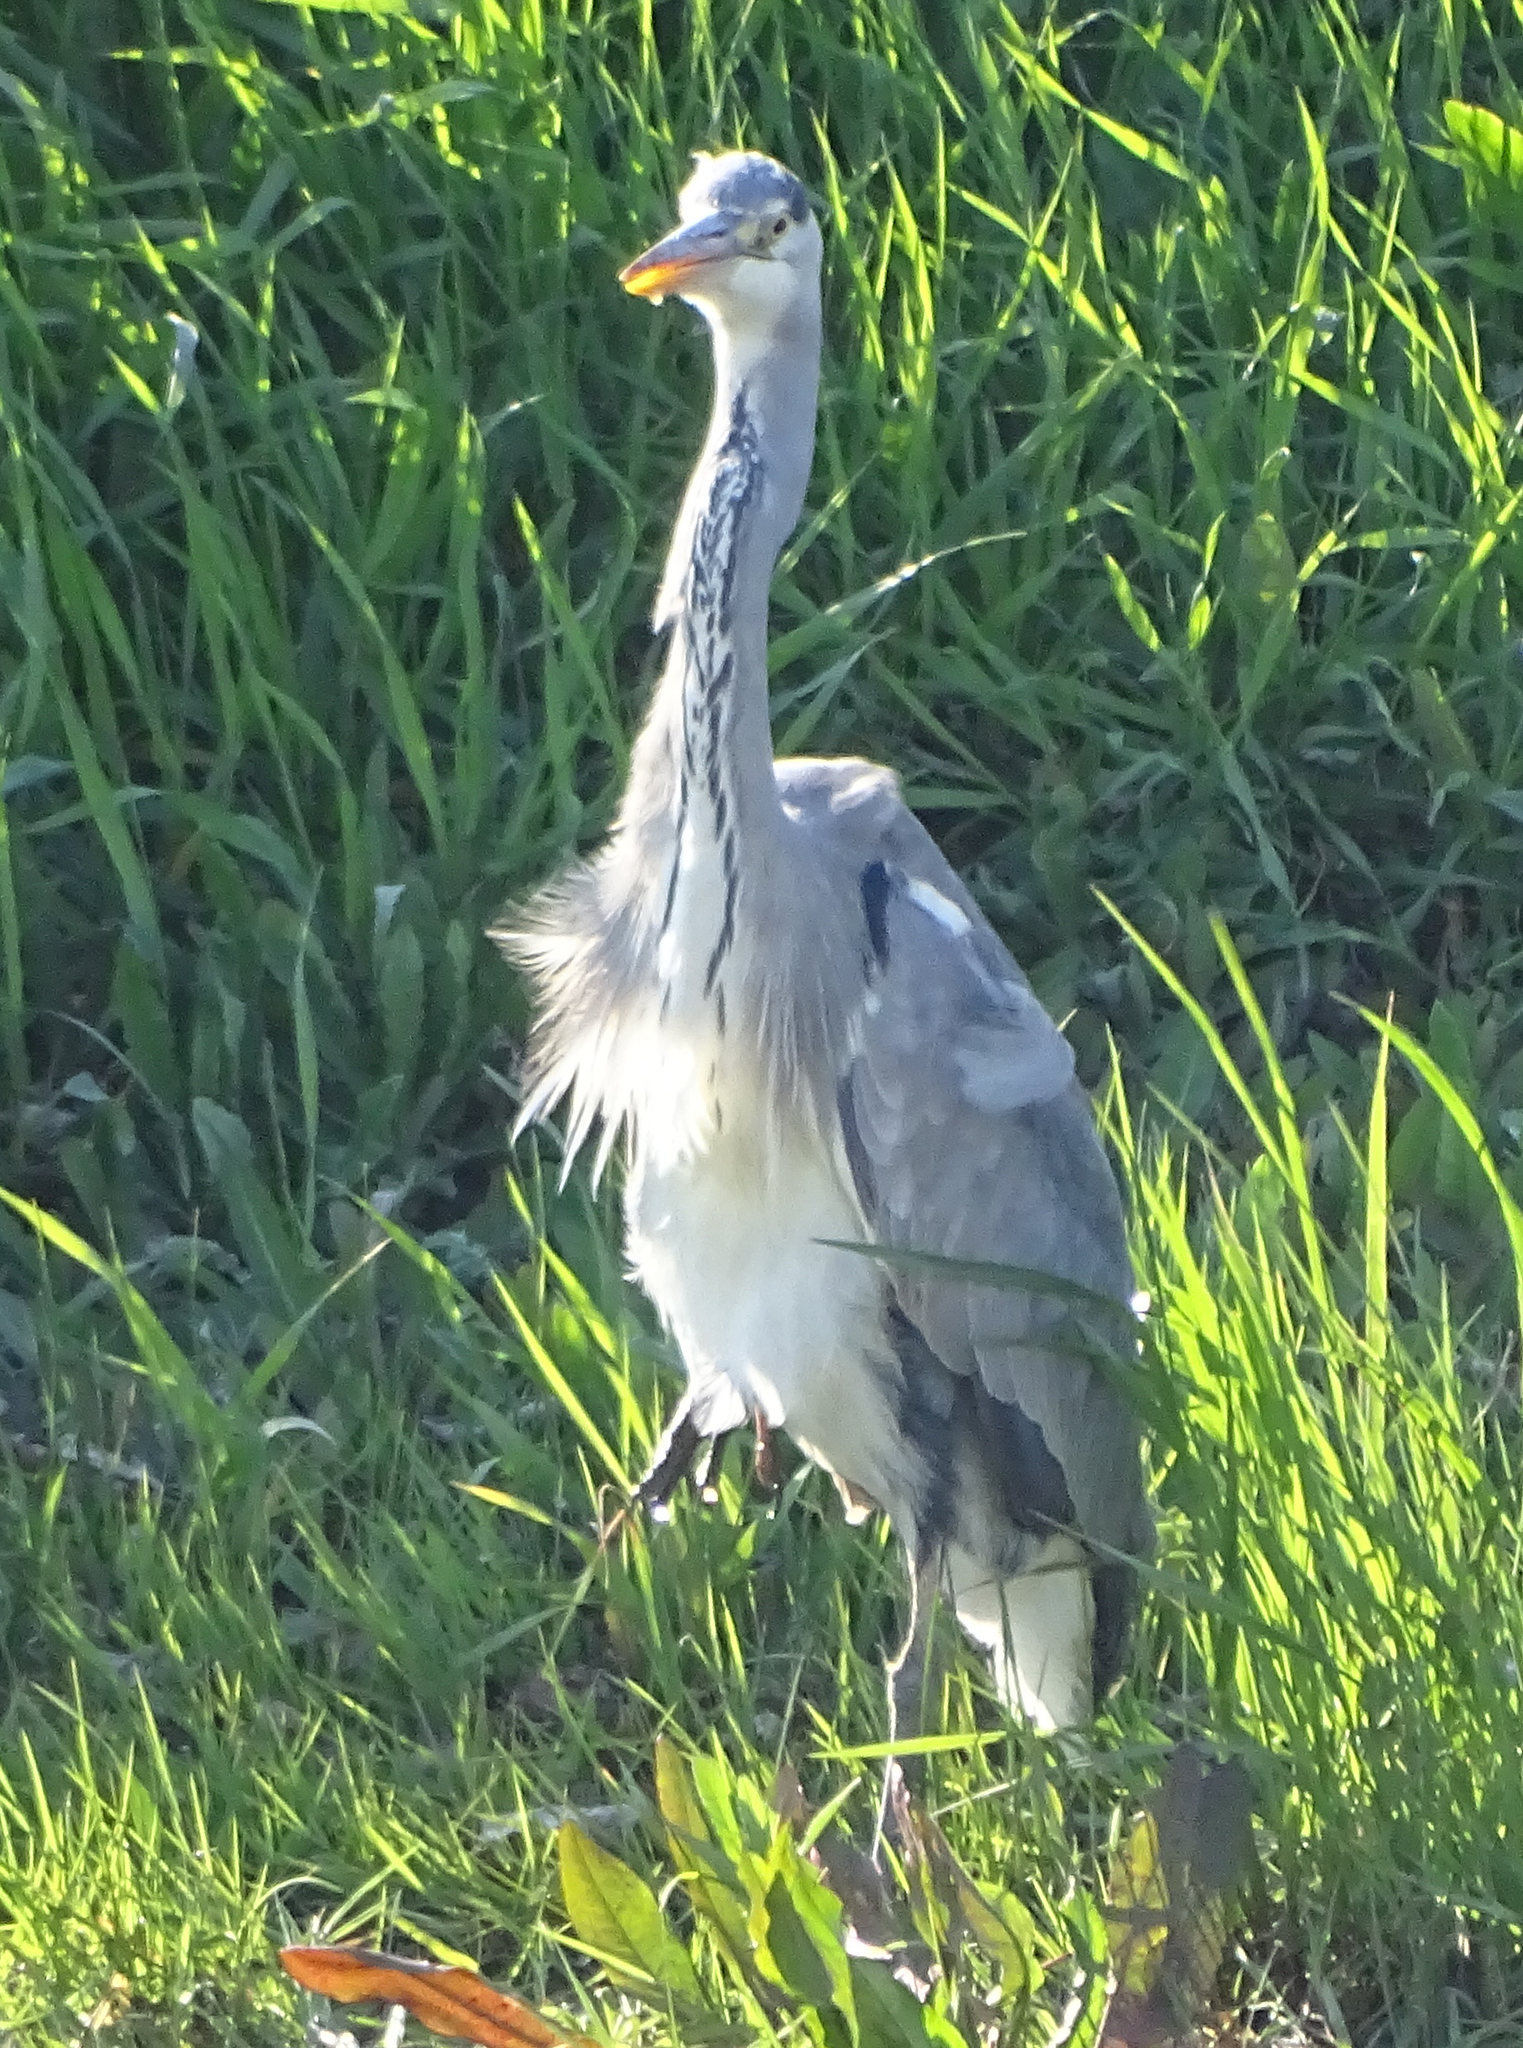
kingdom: Animalia
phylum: Chordata
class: Aves
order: Pelecaniformes
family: Ardeidae
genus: Ardea
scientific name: Ardea cinerea
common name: Grey heron
